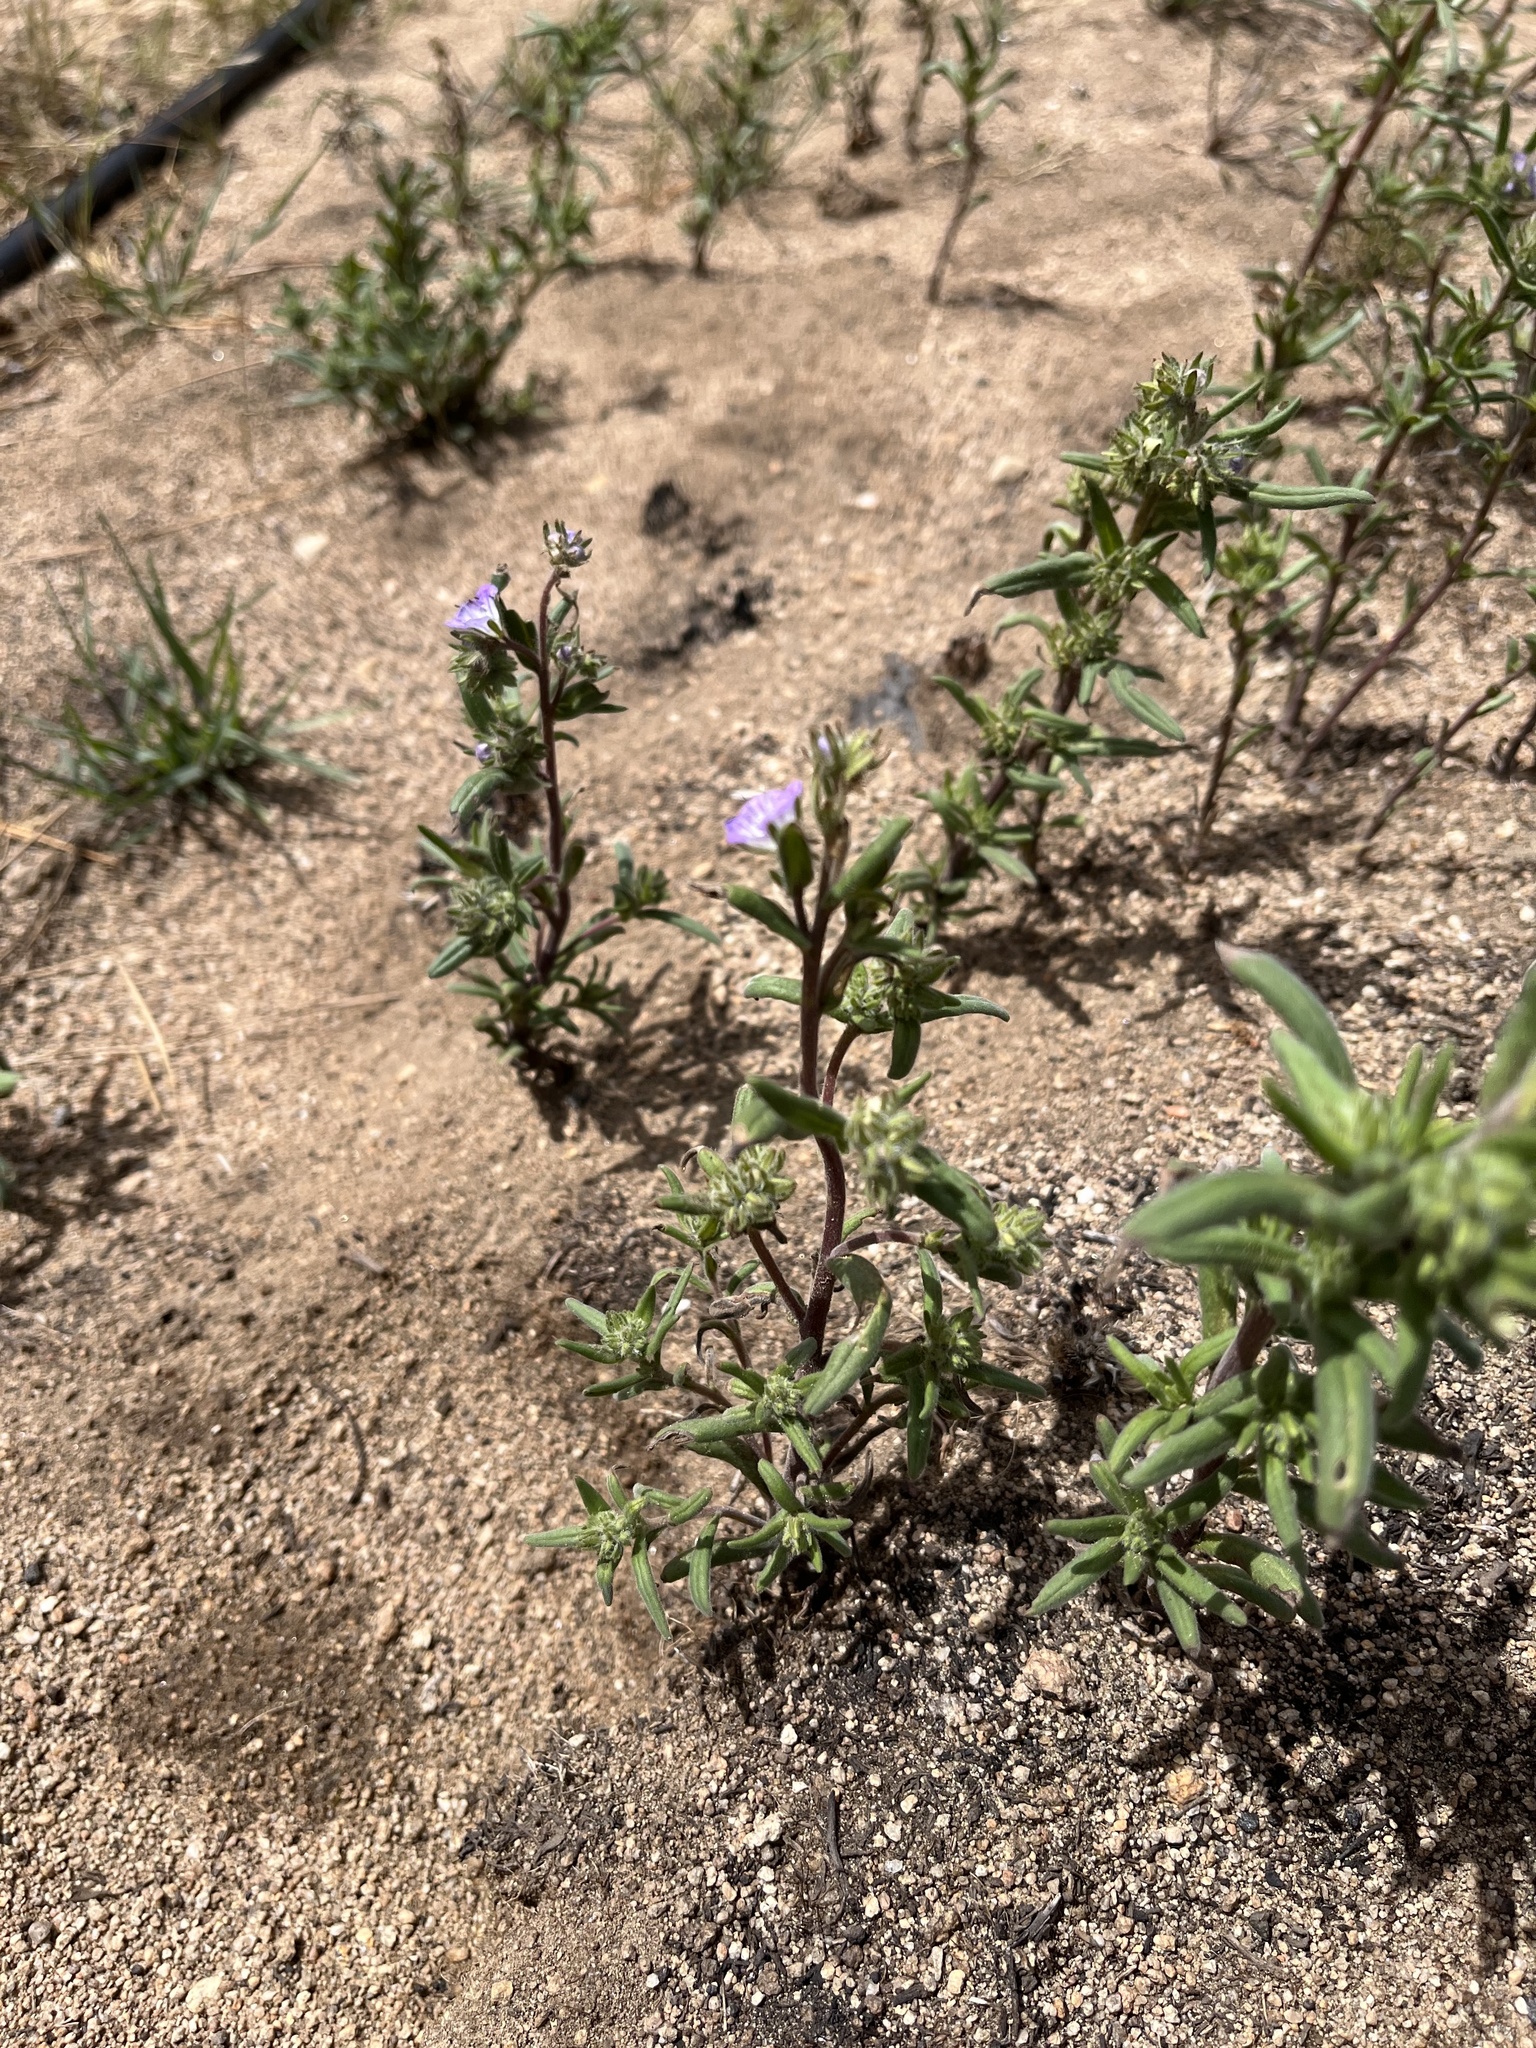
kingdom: Plantae
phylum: Tracheophyta
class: Magnoliopsida
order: Boraginales
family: Hydrophyllaceae
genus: Phacelia
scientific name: Phacelia linearis
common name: Linear-leaved phacelia
